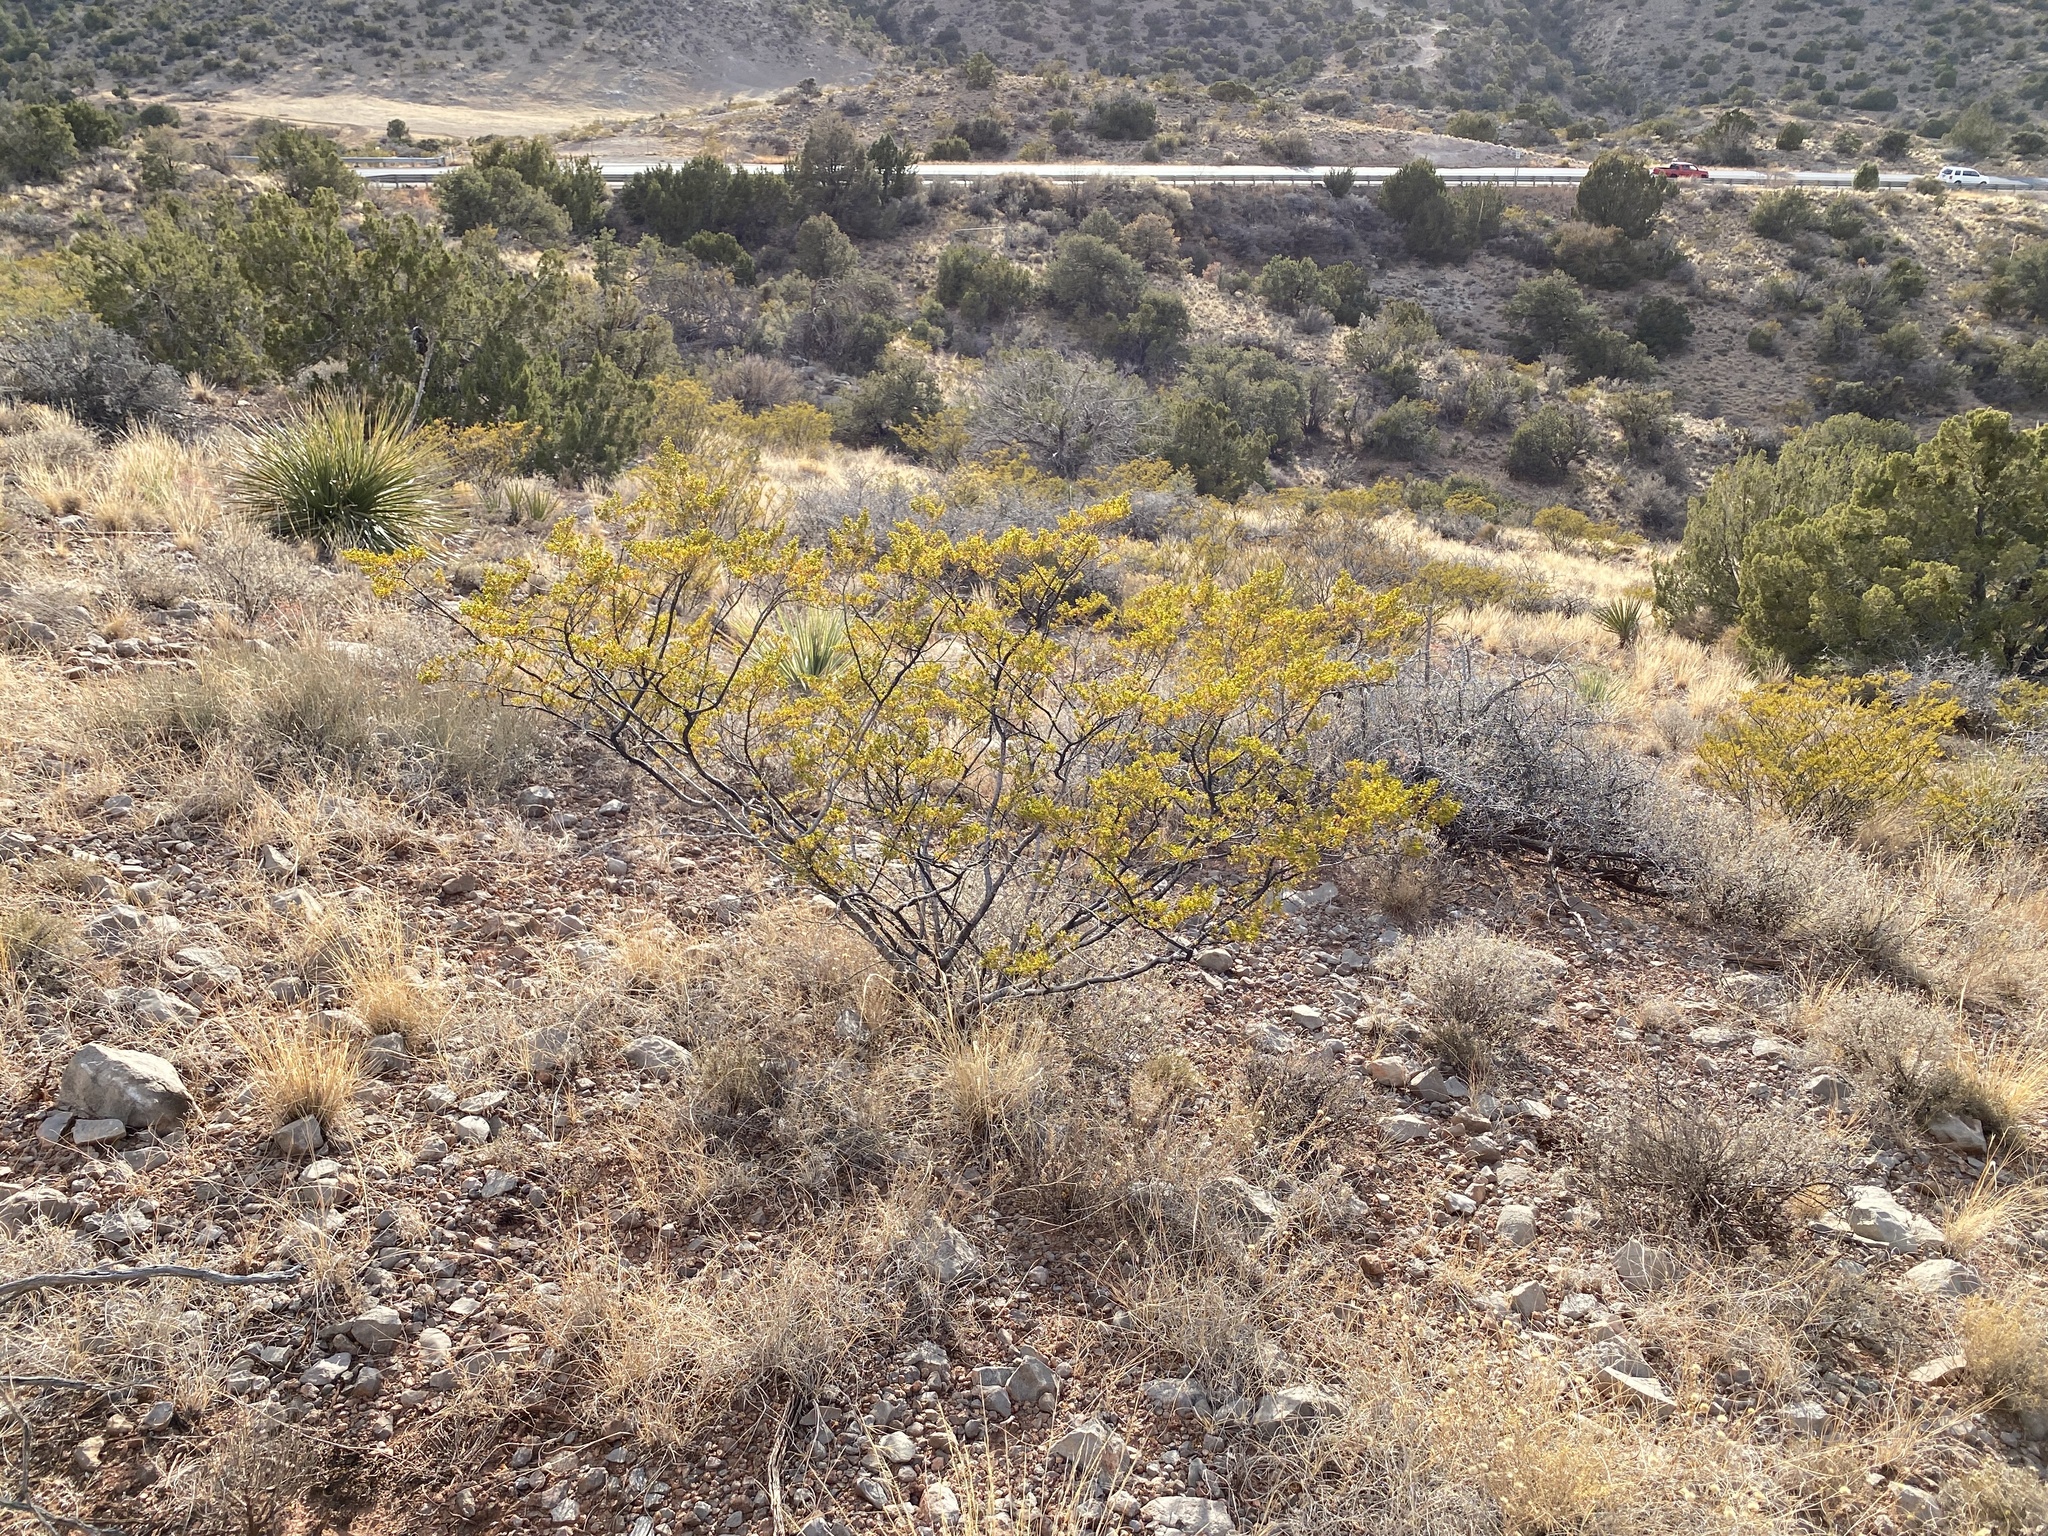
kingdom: Plantae
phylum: Tracheophyta
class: Magnoliopsida
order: Zygophyllales
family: Zygophyllaceae
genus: Larrea
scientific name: Larrea tridentata
